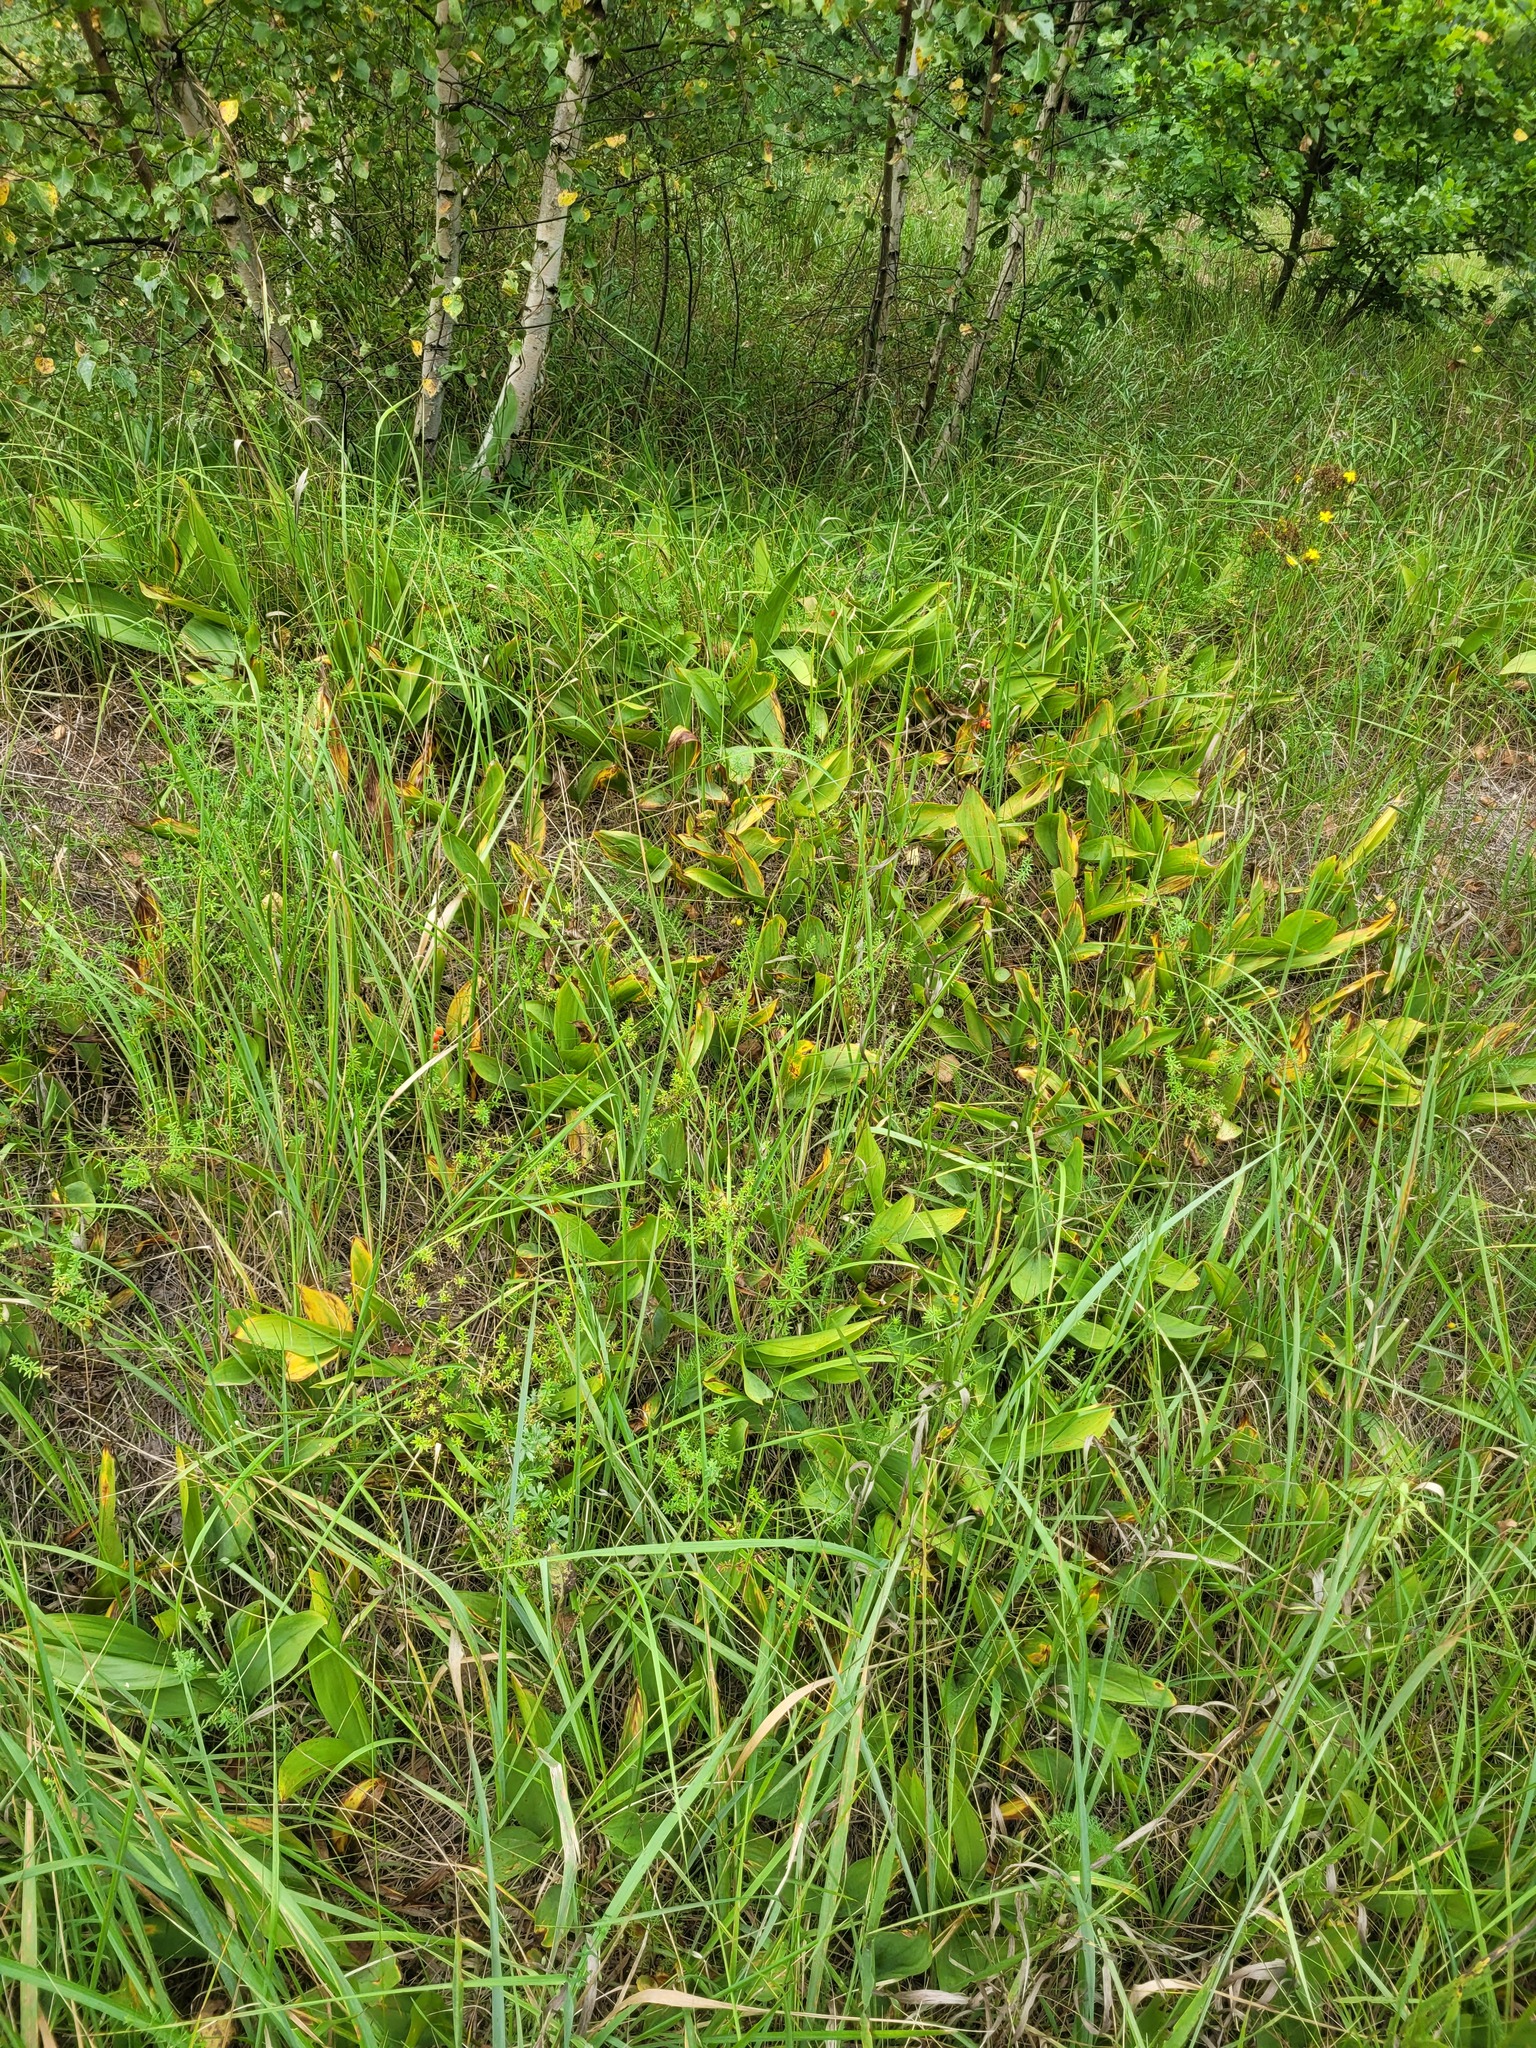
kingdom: Plantae
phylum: Tracheophyta
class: Liliopsida
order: Asparagales
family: Asparagaceae
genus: Convallaria
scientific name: Convallaria majalis
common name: Lily-of-the-valley
